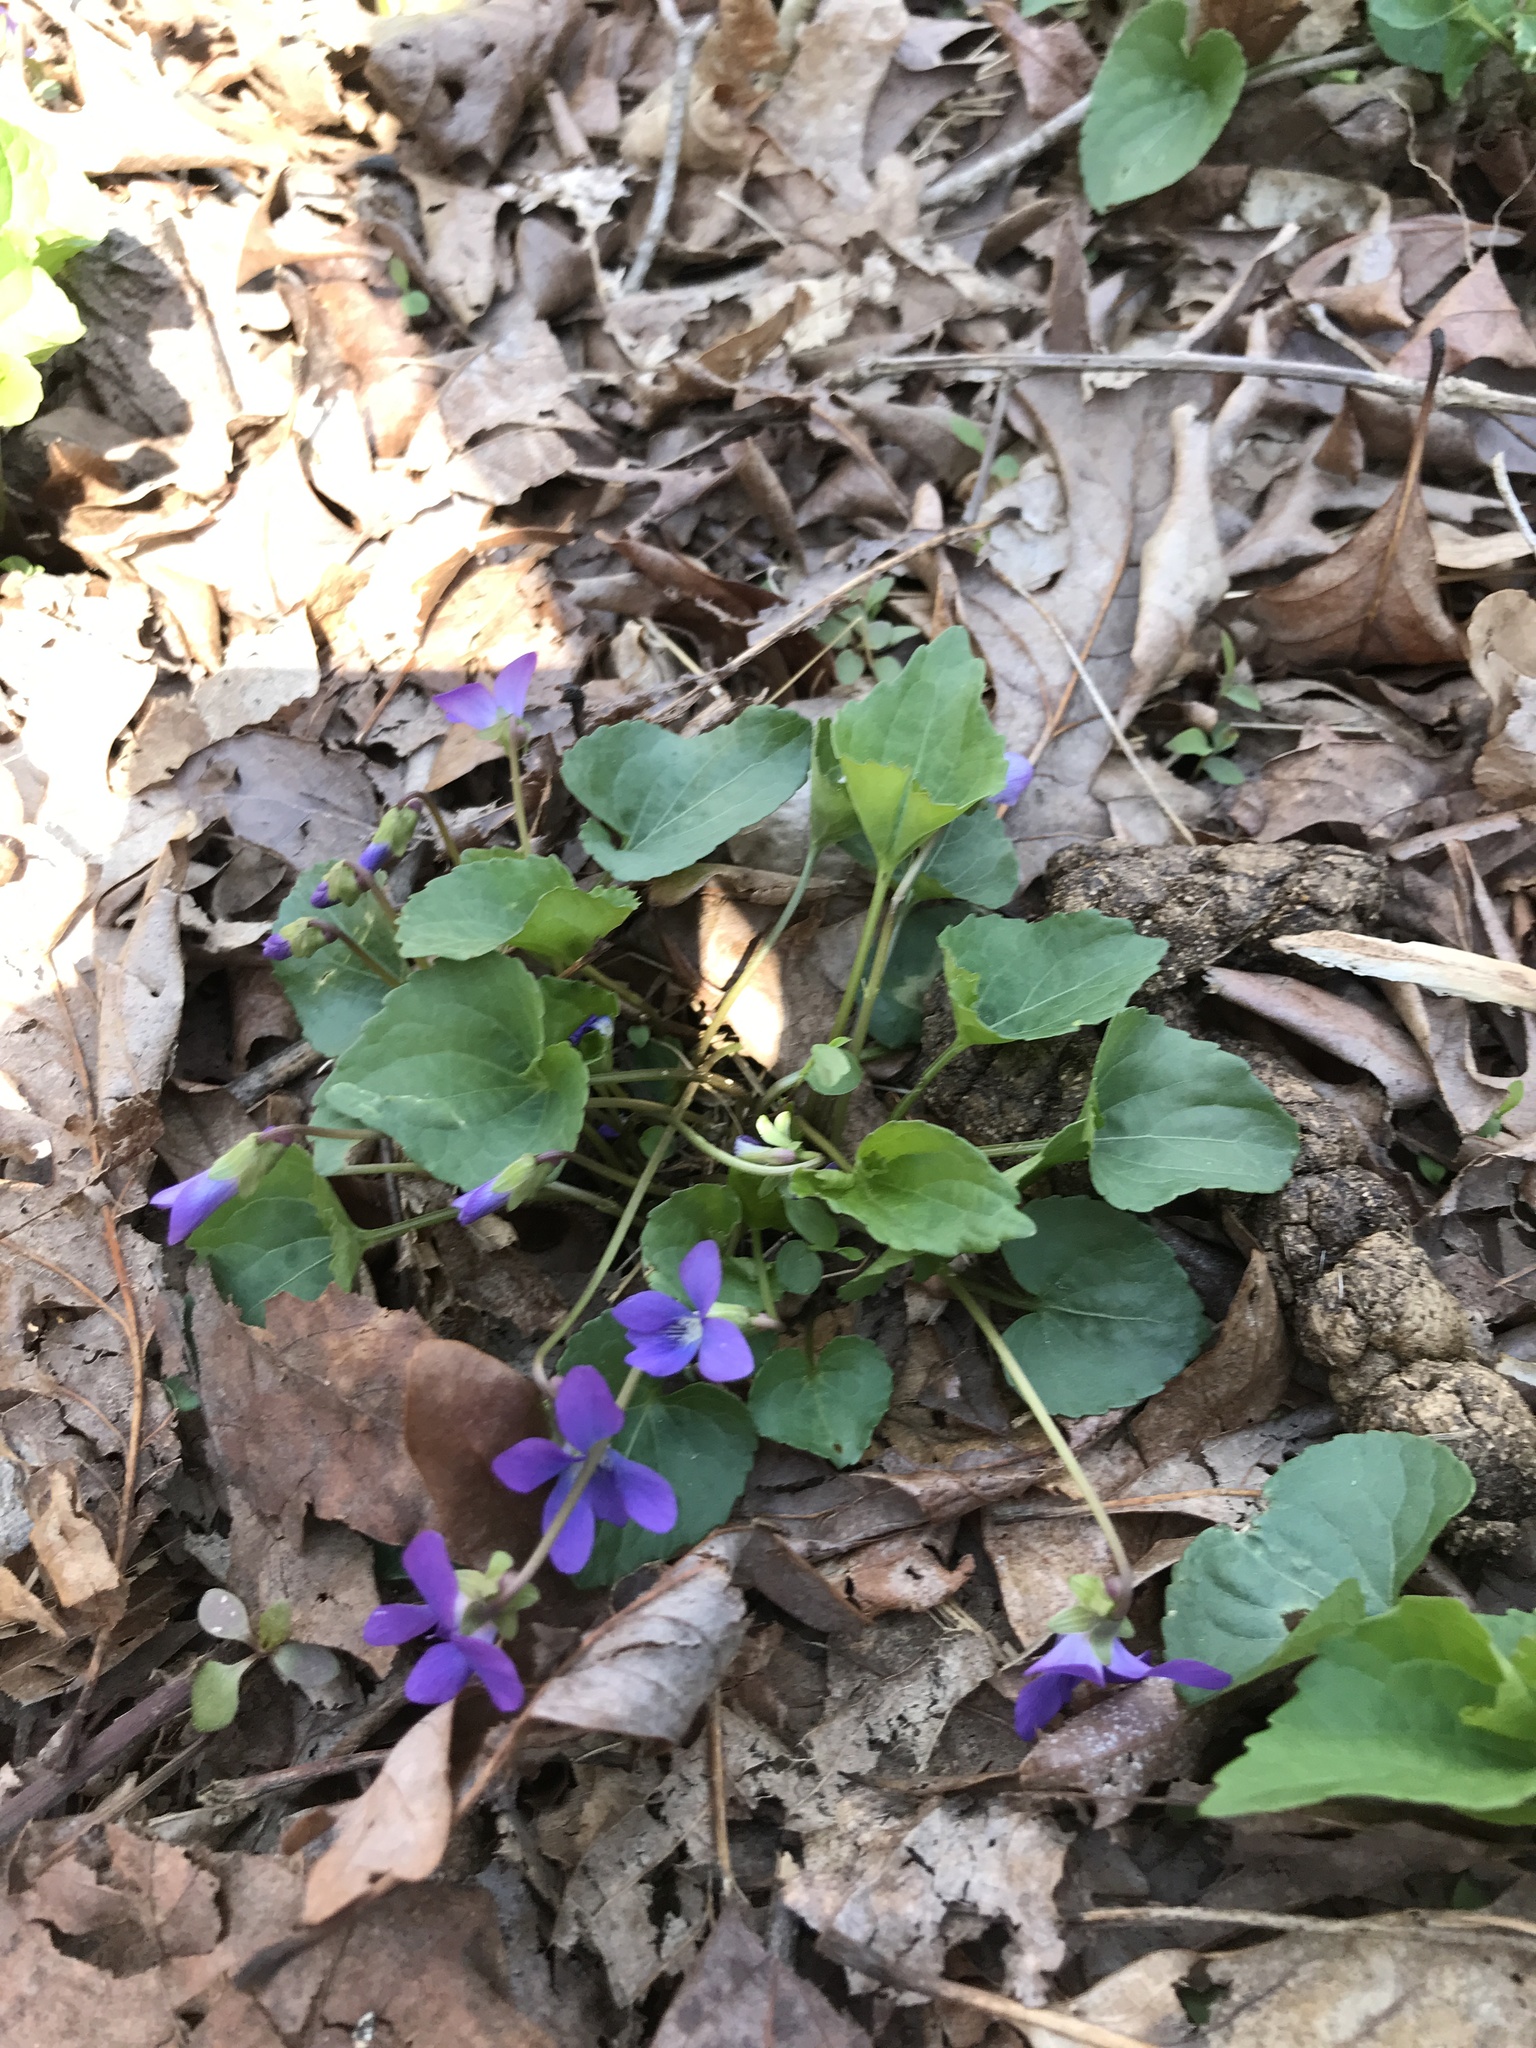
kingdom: Plantae
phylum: Tracheophyta
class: Magnoliopsida
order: Malpighiales
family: Violaceae
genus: Viola
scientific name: Viola sororia
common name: Dooryard violet
